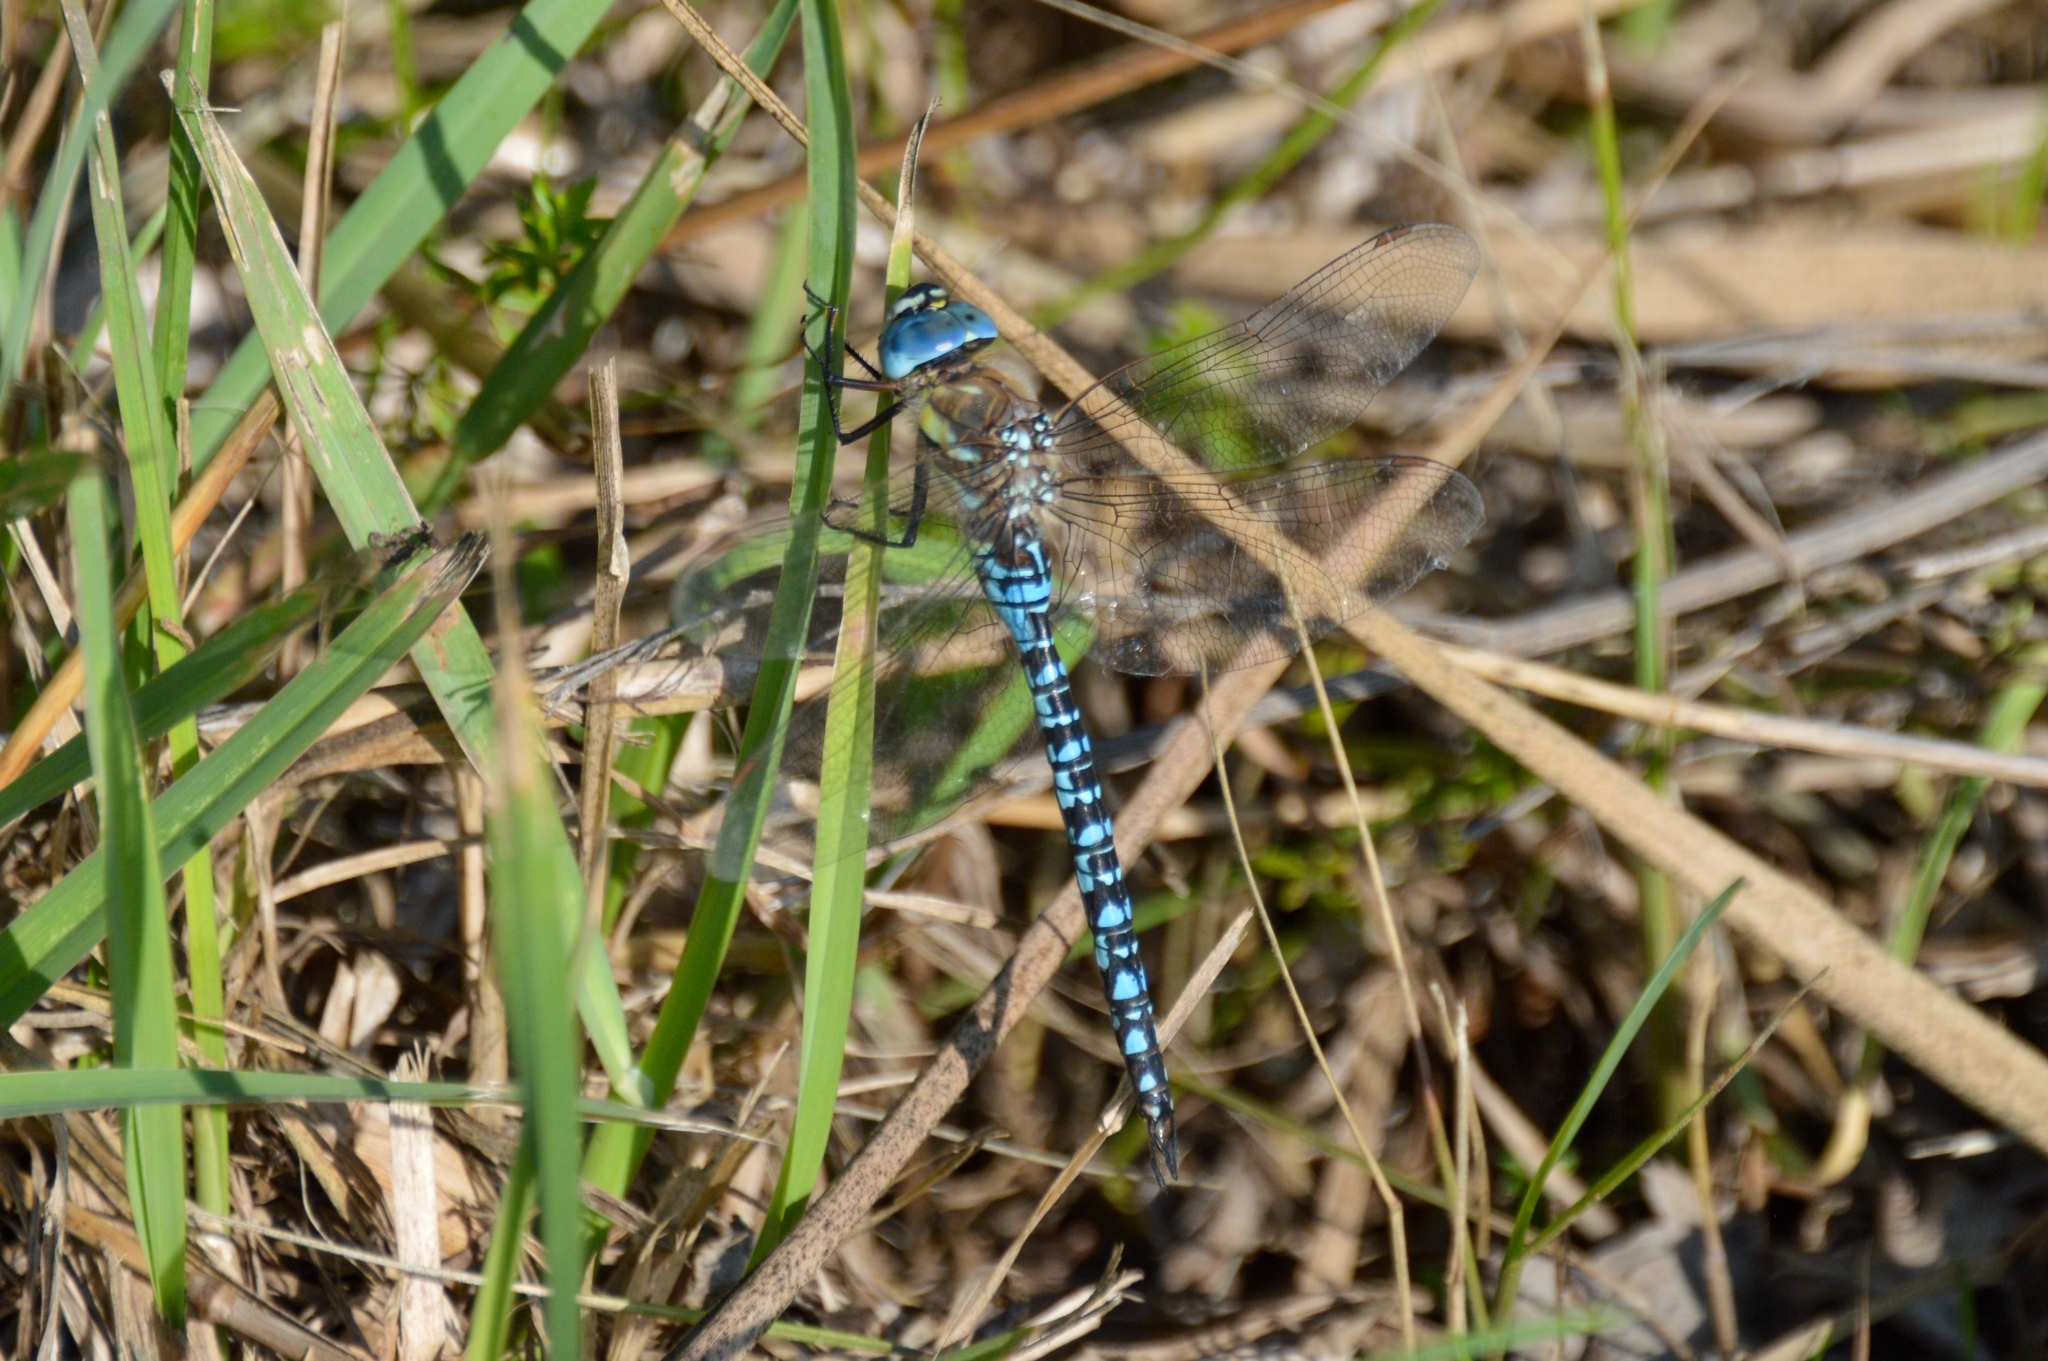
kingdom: Animalia
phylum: Arthropoda
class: Insecta
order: Odonata
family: Aeshnidae
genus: Aeshna
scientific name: Aeshna soneharai
